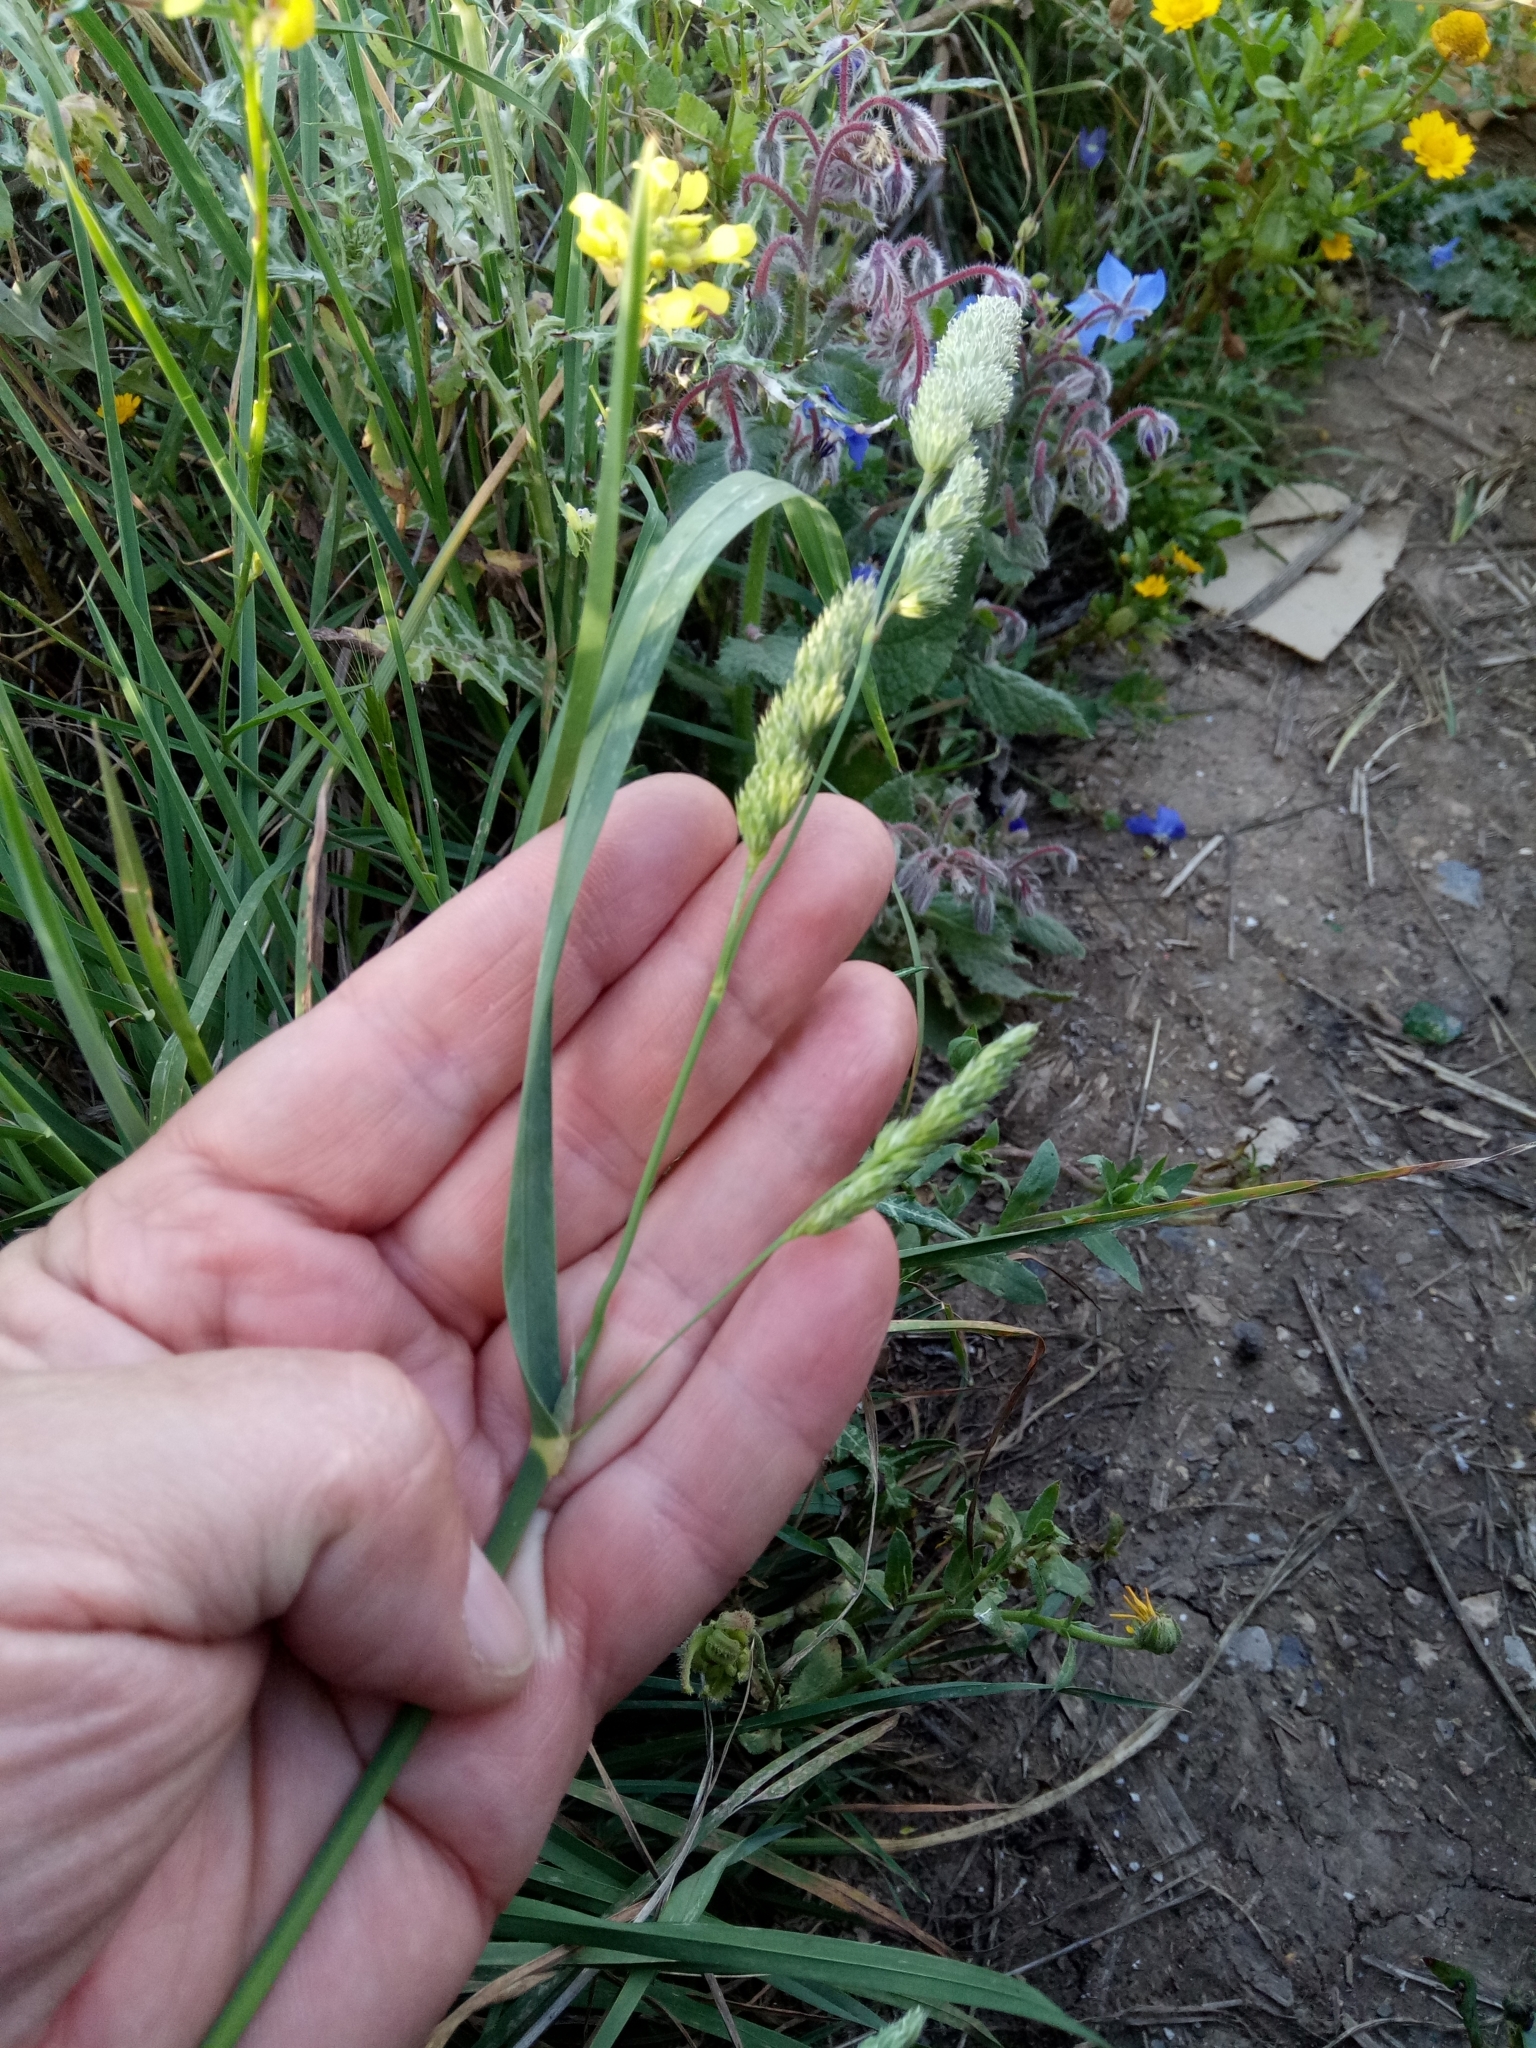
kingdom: Plantae
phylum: Tracheophyta
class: Liliopsida
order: Poales
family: Poaceae
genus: Dactylis
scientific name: Dactylis glomerata
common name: Orchardgrass
